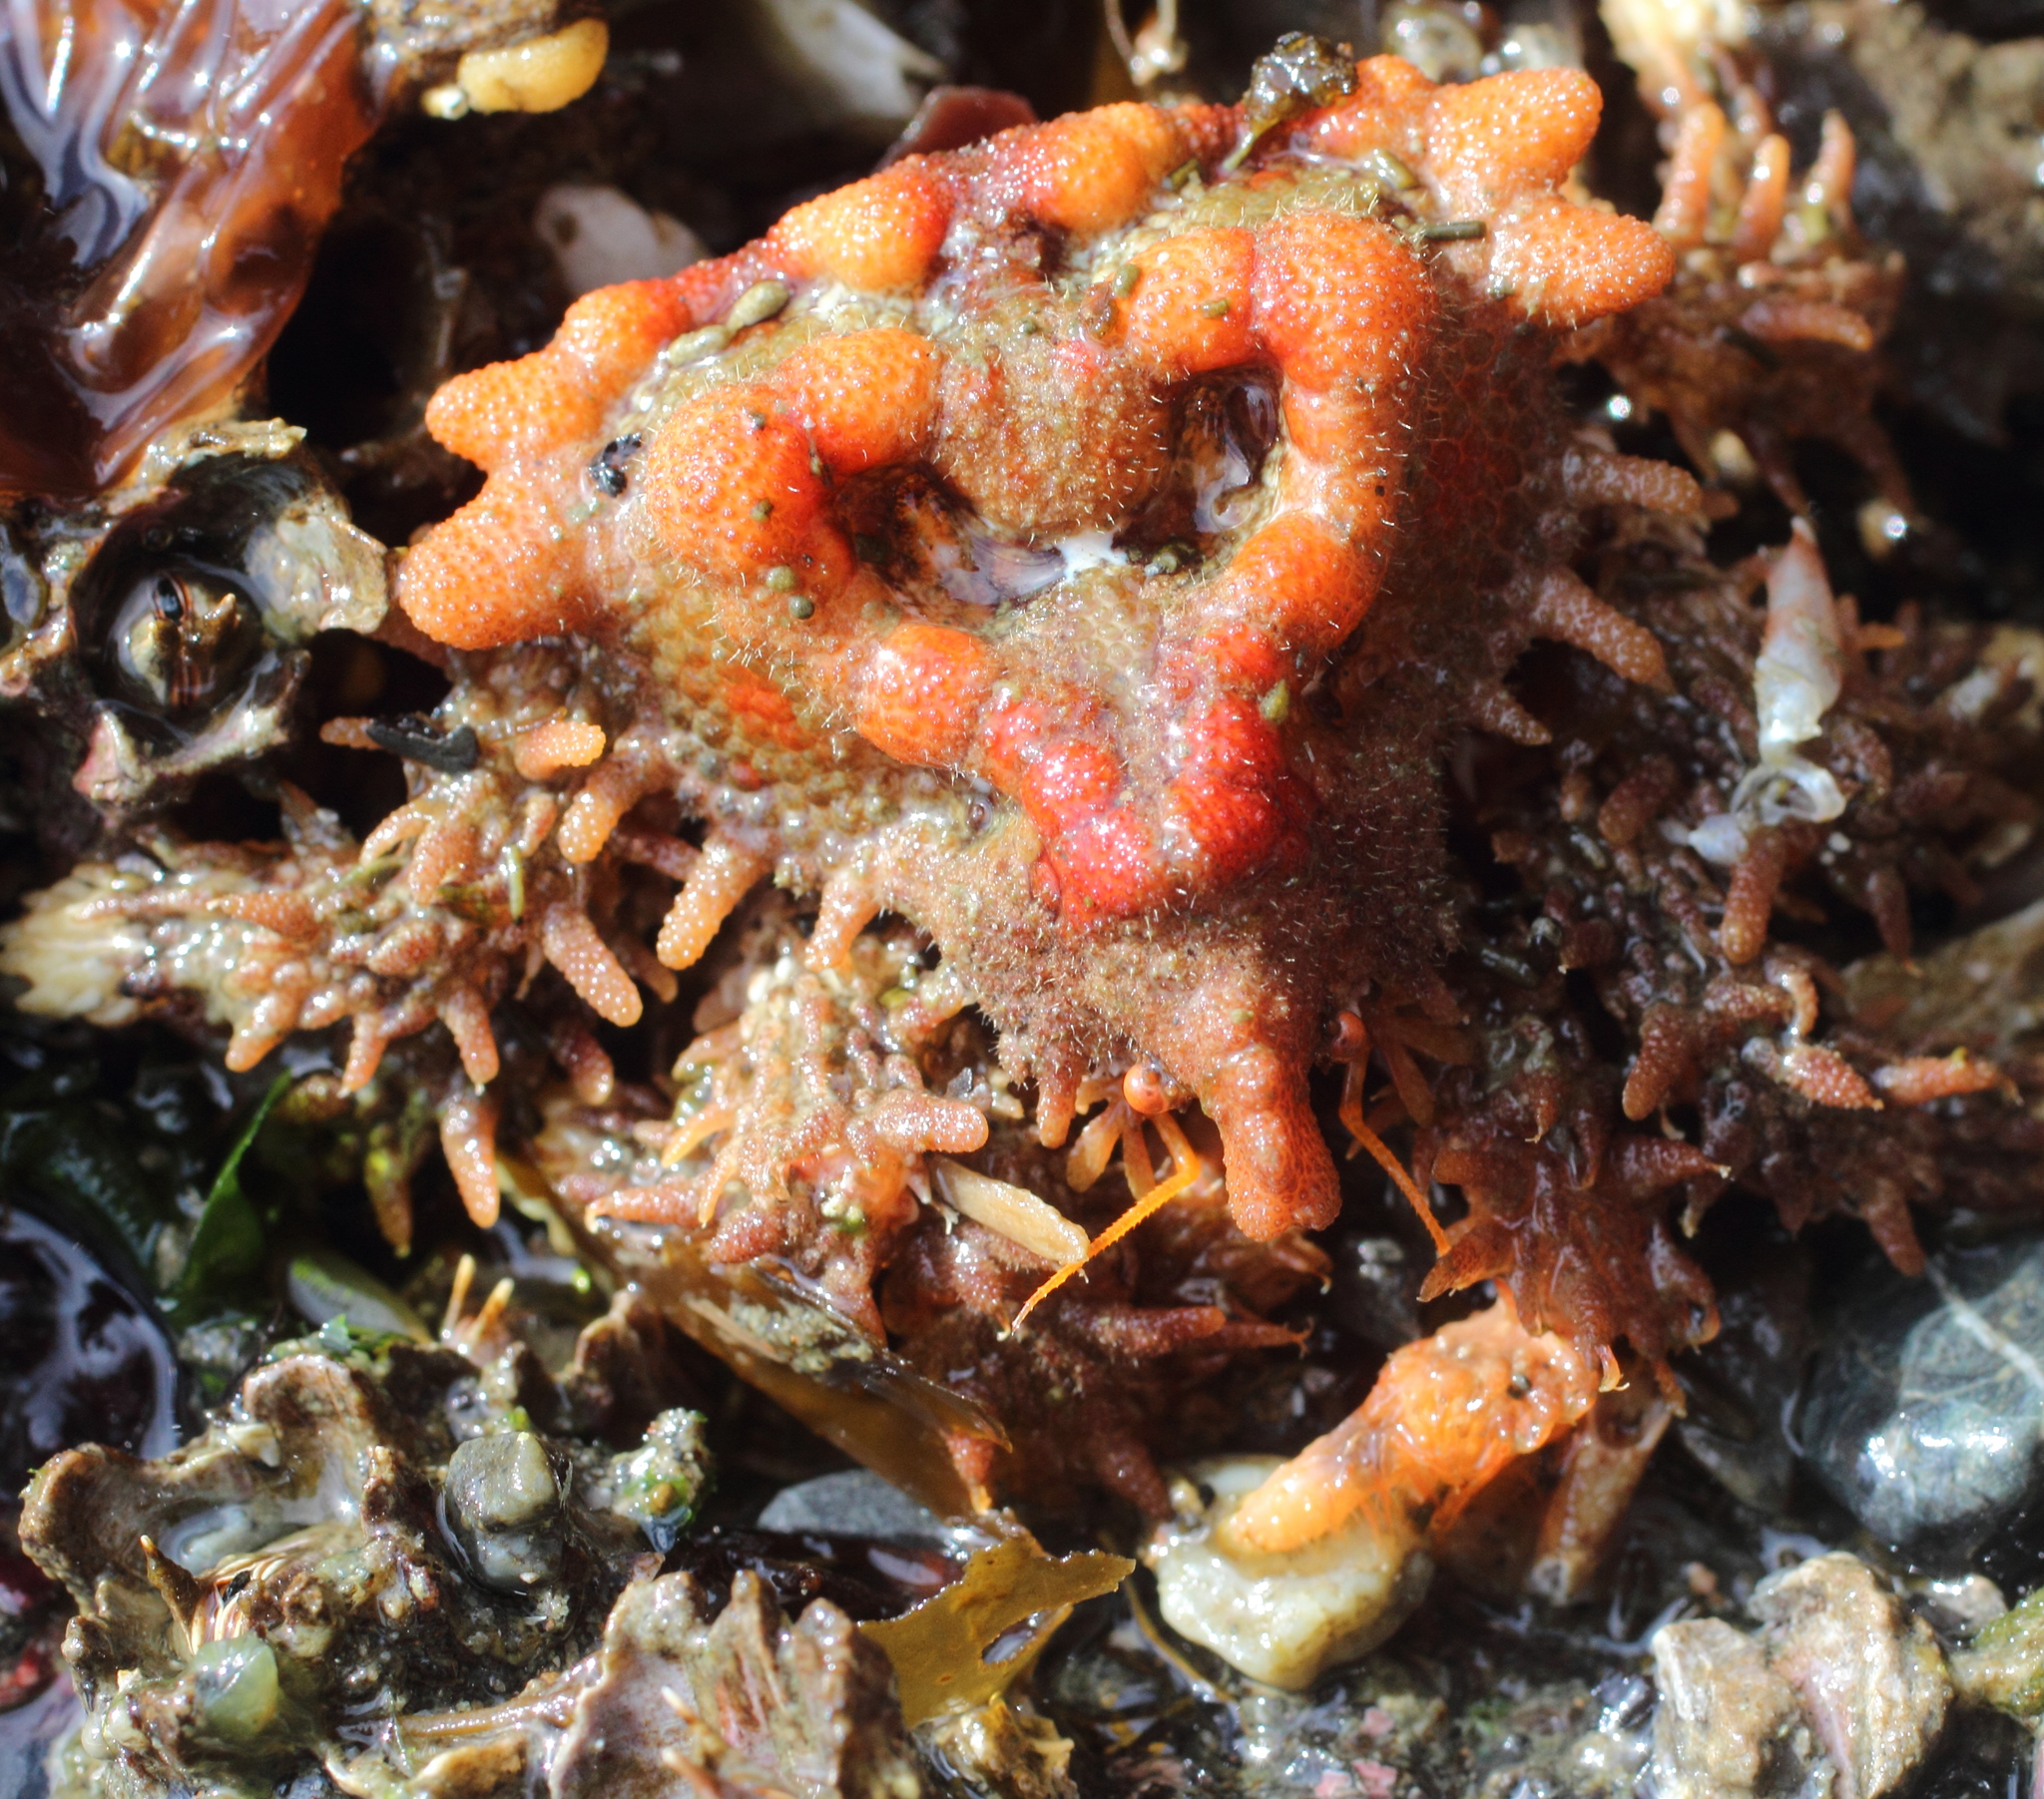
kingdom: Animalia
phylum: Arthropoda
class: Malacostraca
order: Decapoda
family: Lithodidae
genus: Phyllolithodes
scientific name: Phyllolithodes papillosus
